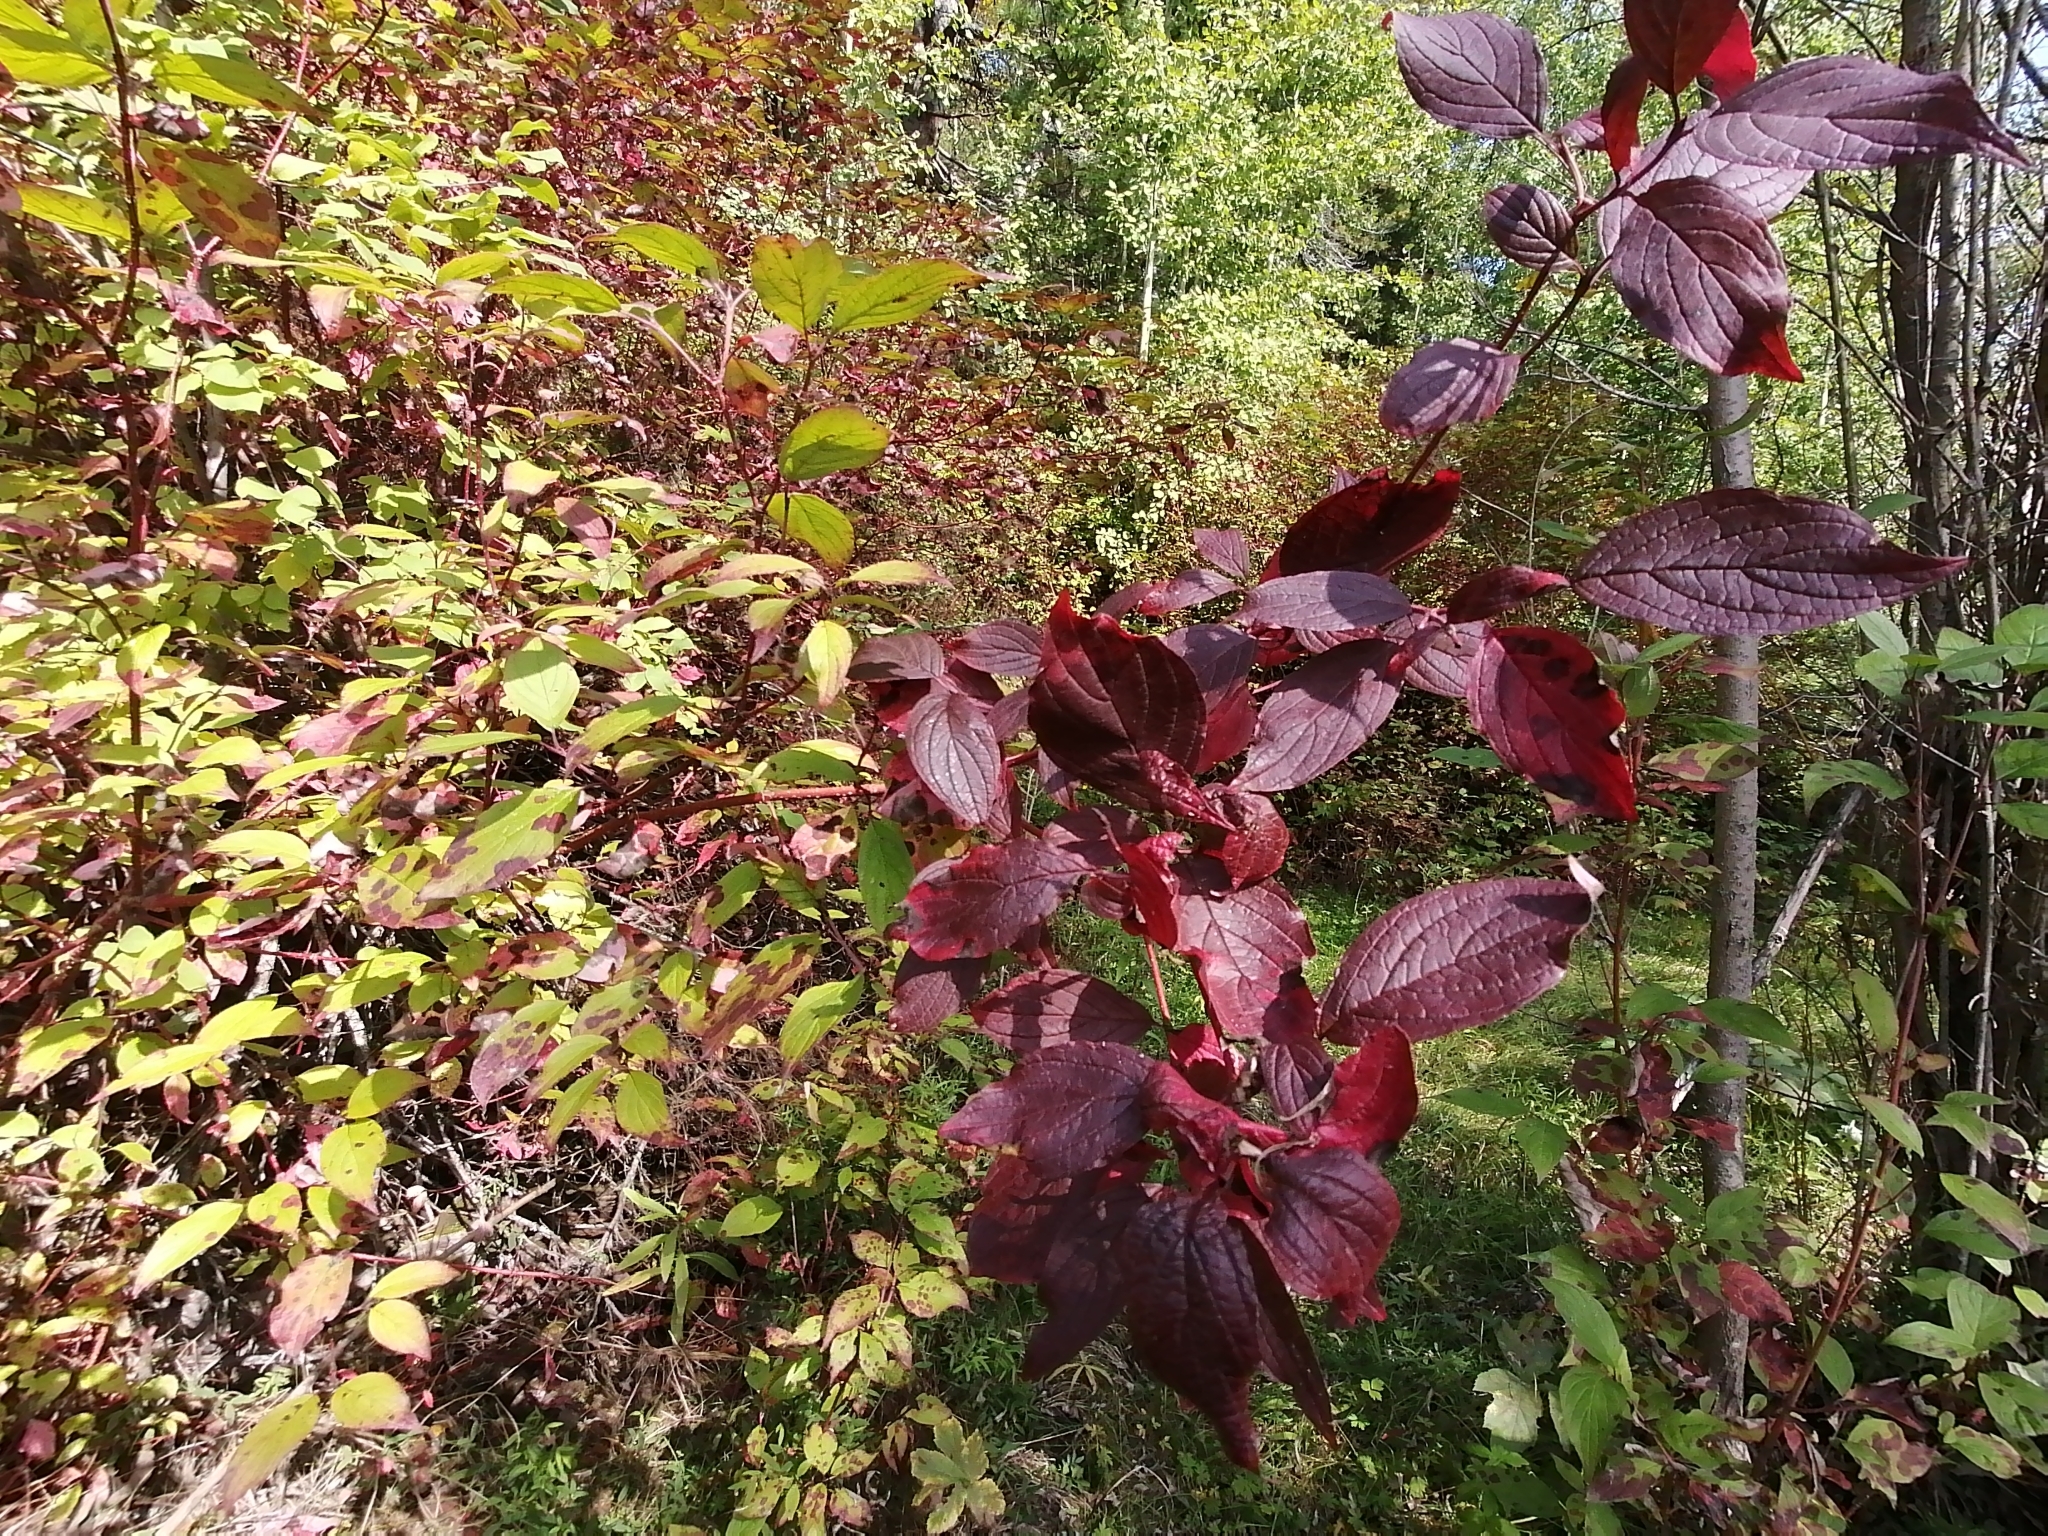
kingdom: Plantae
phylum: Tracheophyta
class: Magnoliopsida
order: Cornales
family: Cornaceae
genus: Cornus
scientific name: Cornus alba
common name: White dogwood
